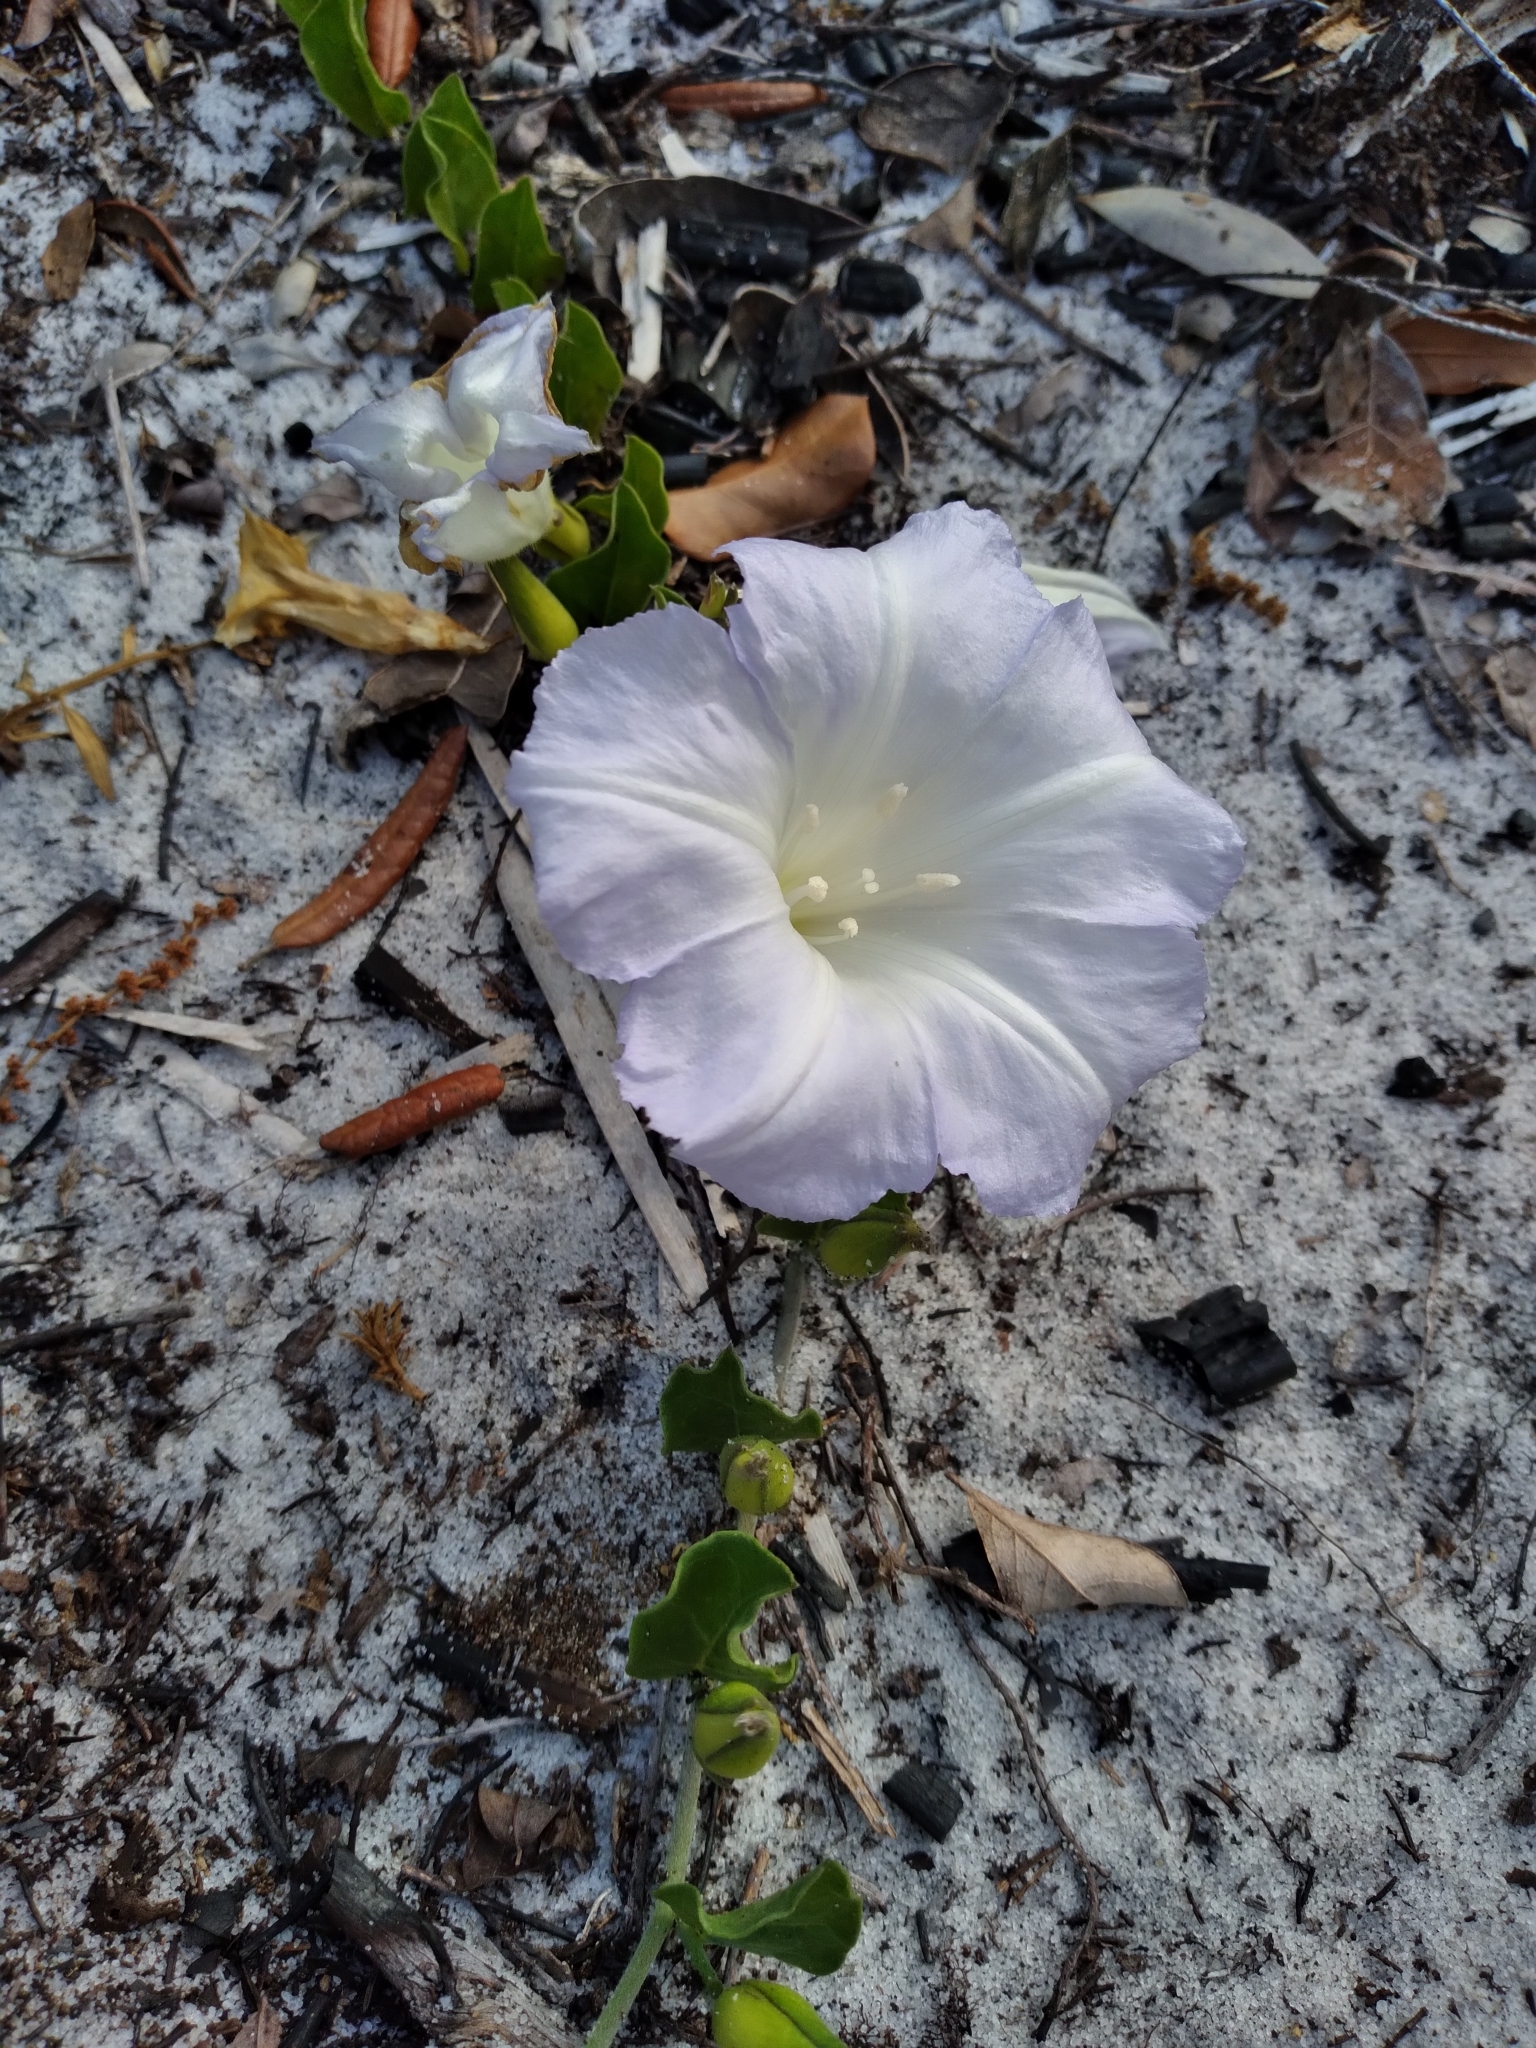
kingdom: Plantae
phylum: Tracheophyta
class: Magnoliopsida
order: Solanales
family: Convolvulaceae
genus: Bonamia
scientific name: Bonamia grandiflora
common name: Florida bonamia
